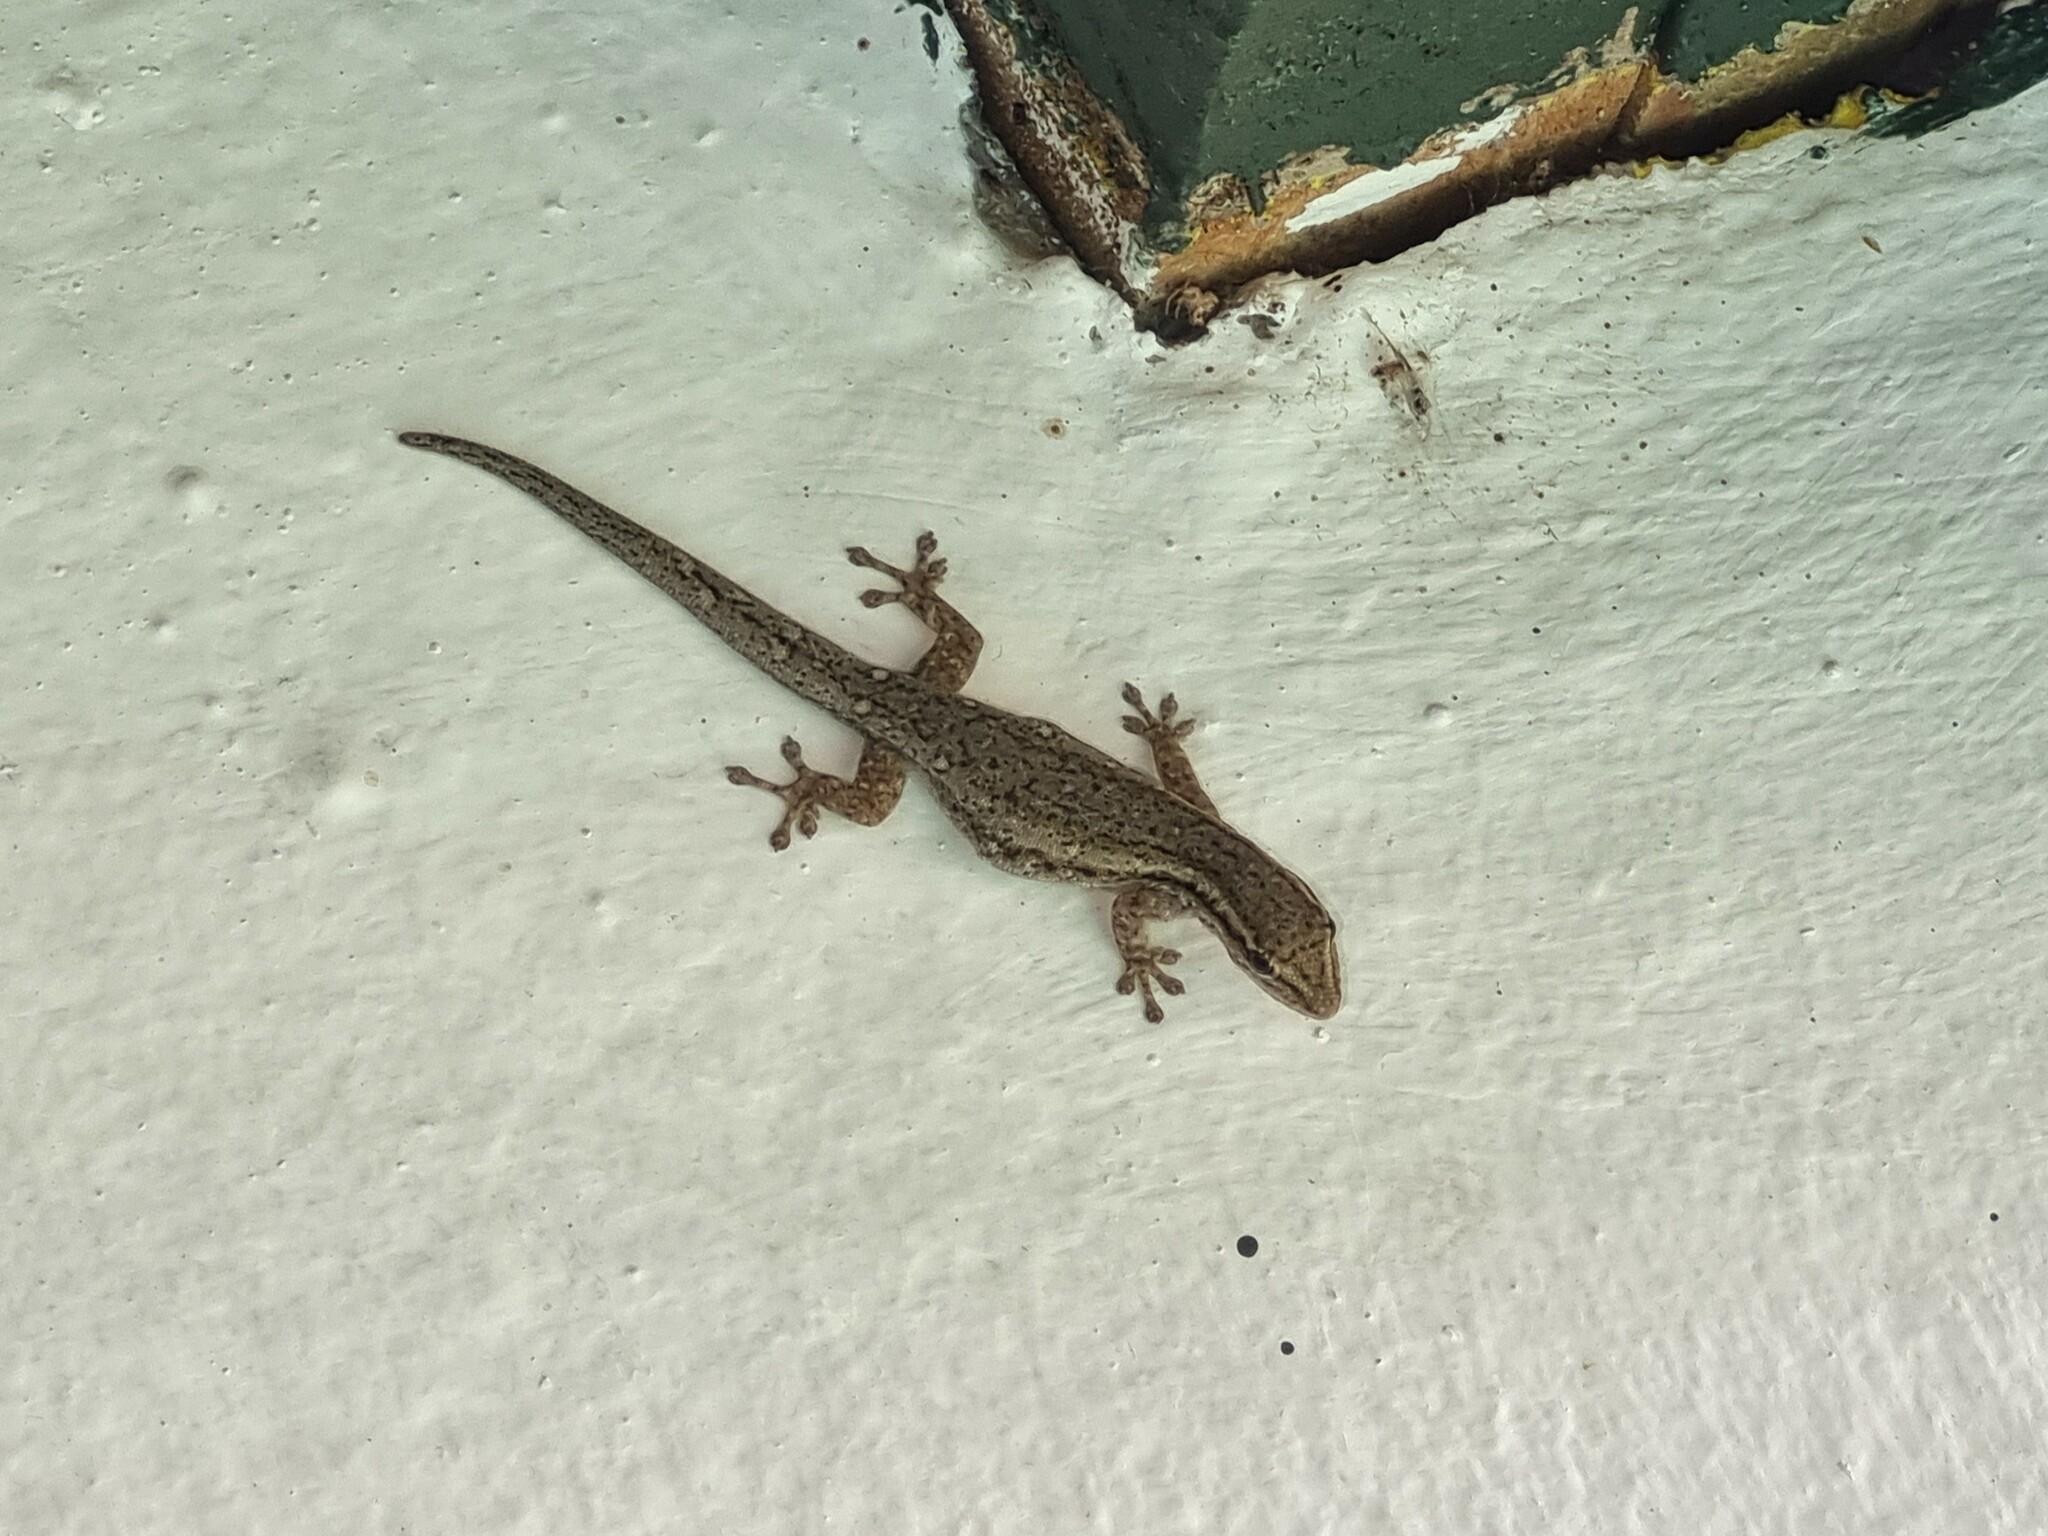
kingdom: Animalia
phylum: Chordata
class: Squamata
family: Gekkonidae
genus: Lygodactylus
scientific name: Lygodactylus capensis
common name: Cape dwarf gecko
